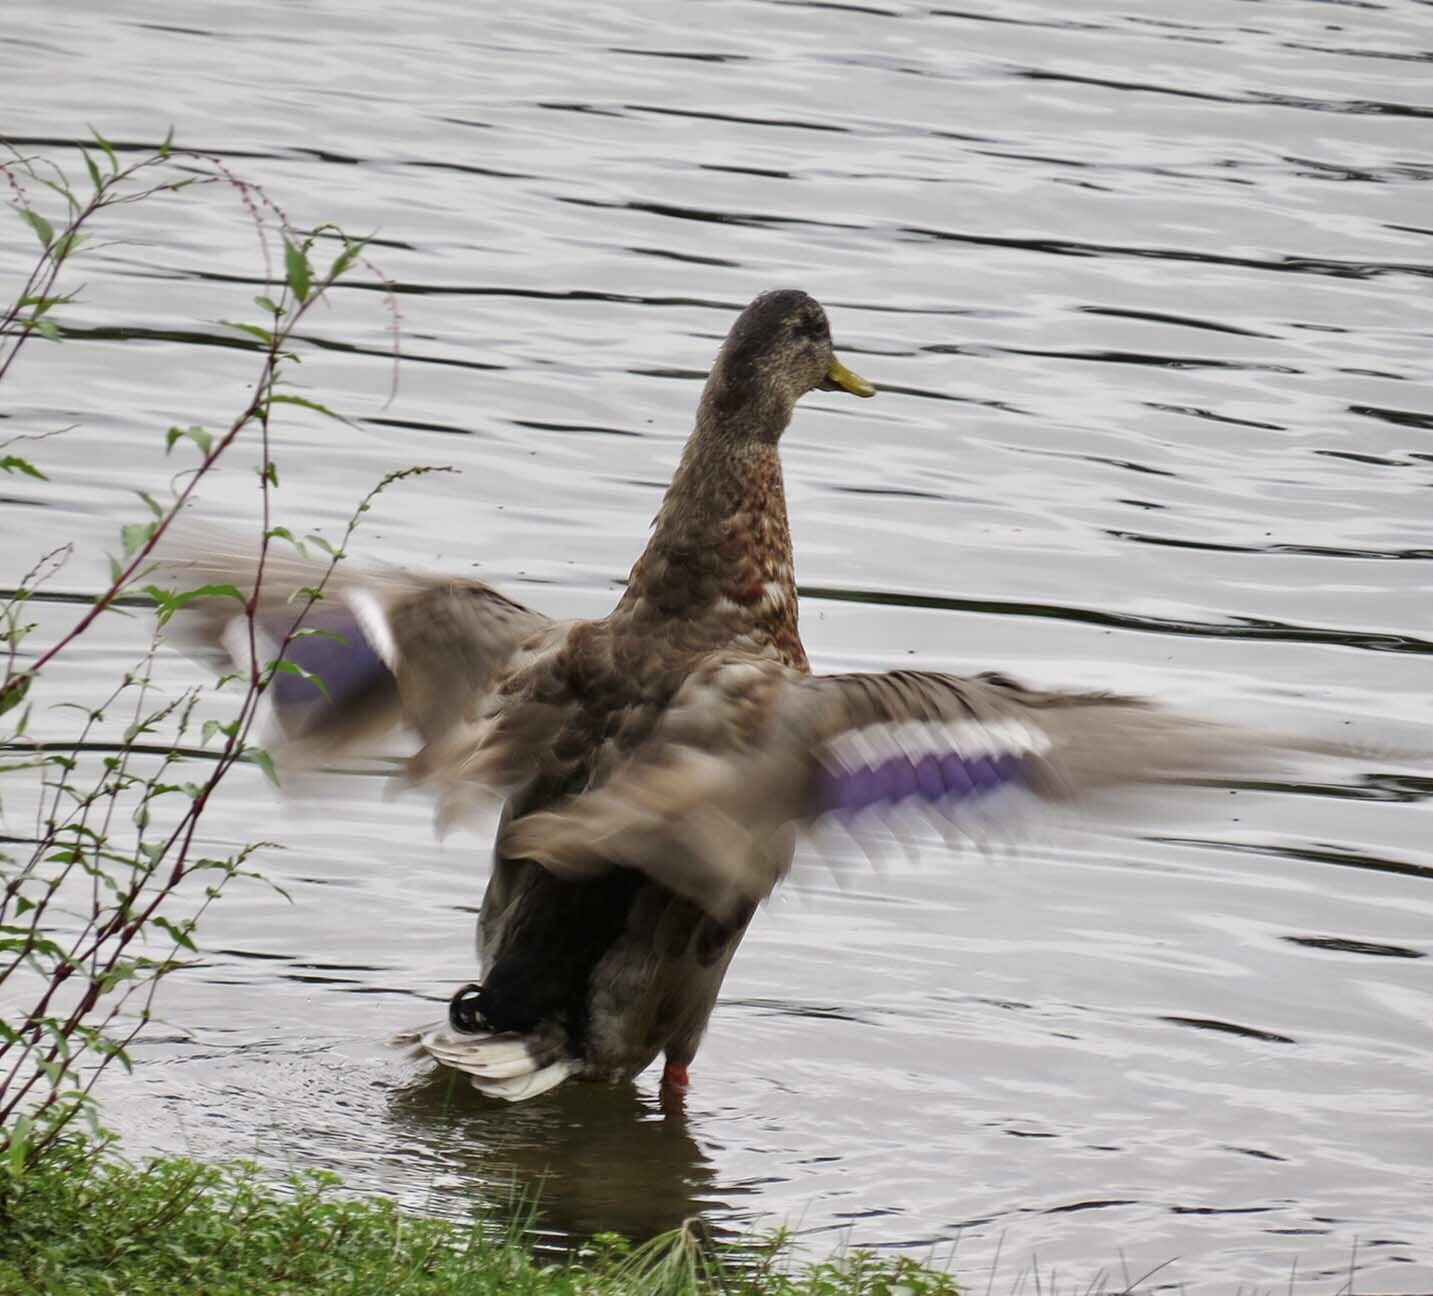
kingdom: Animalia
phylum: Chordata
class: Aves
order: Anseriformes
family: Anatidae
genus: Anas
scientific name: Anas platyrhynchos
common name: Mallard
